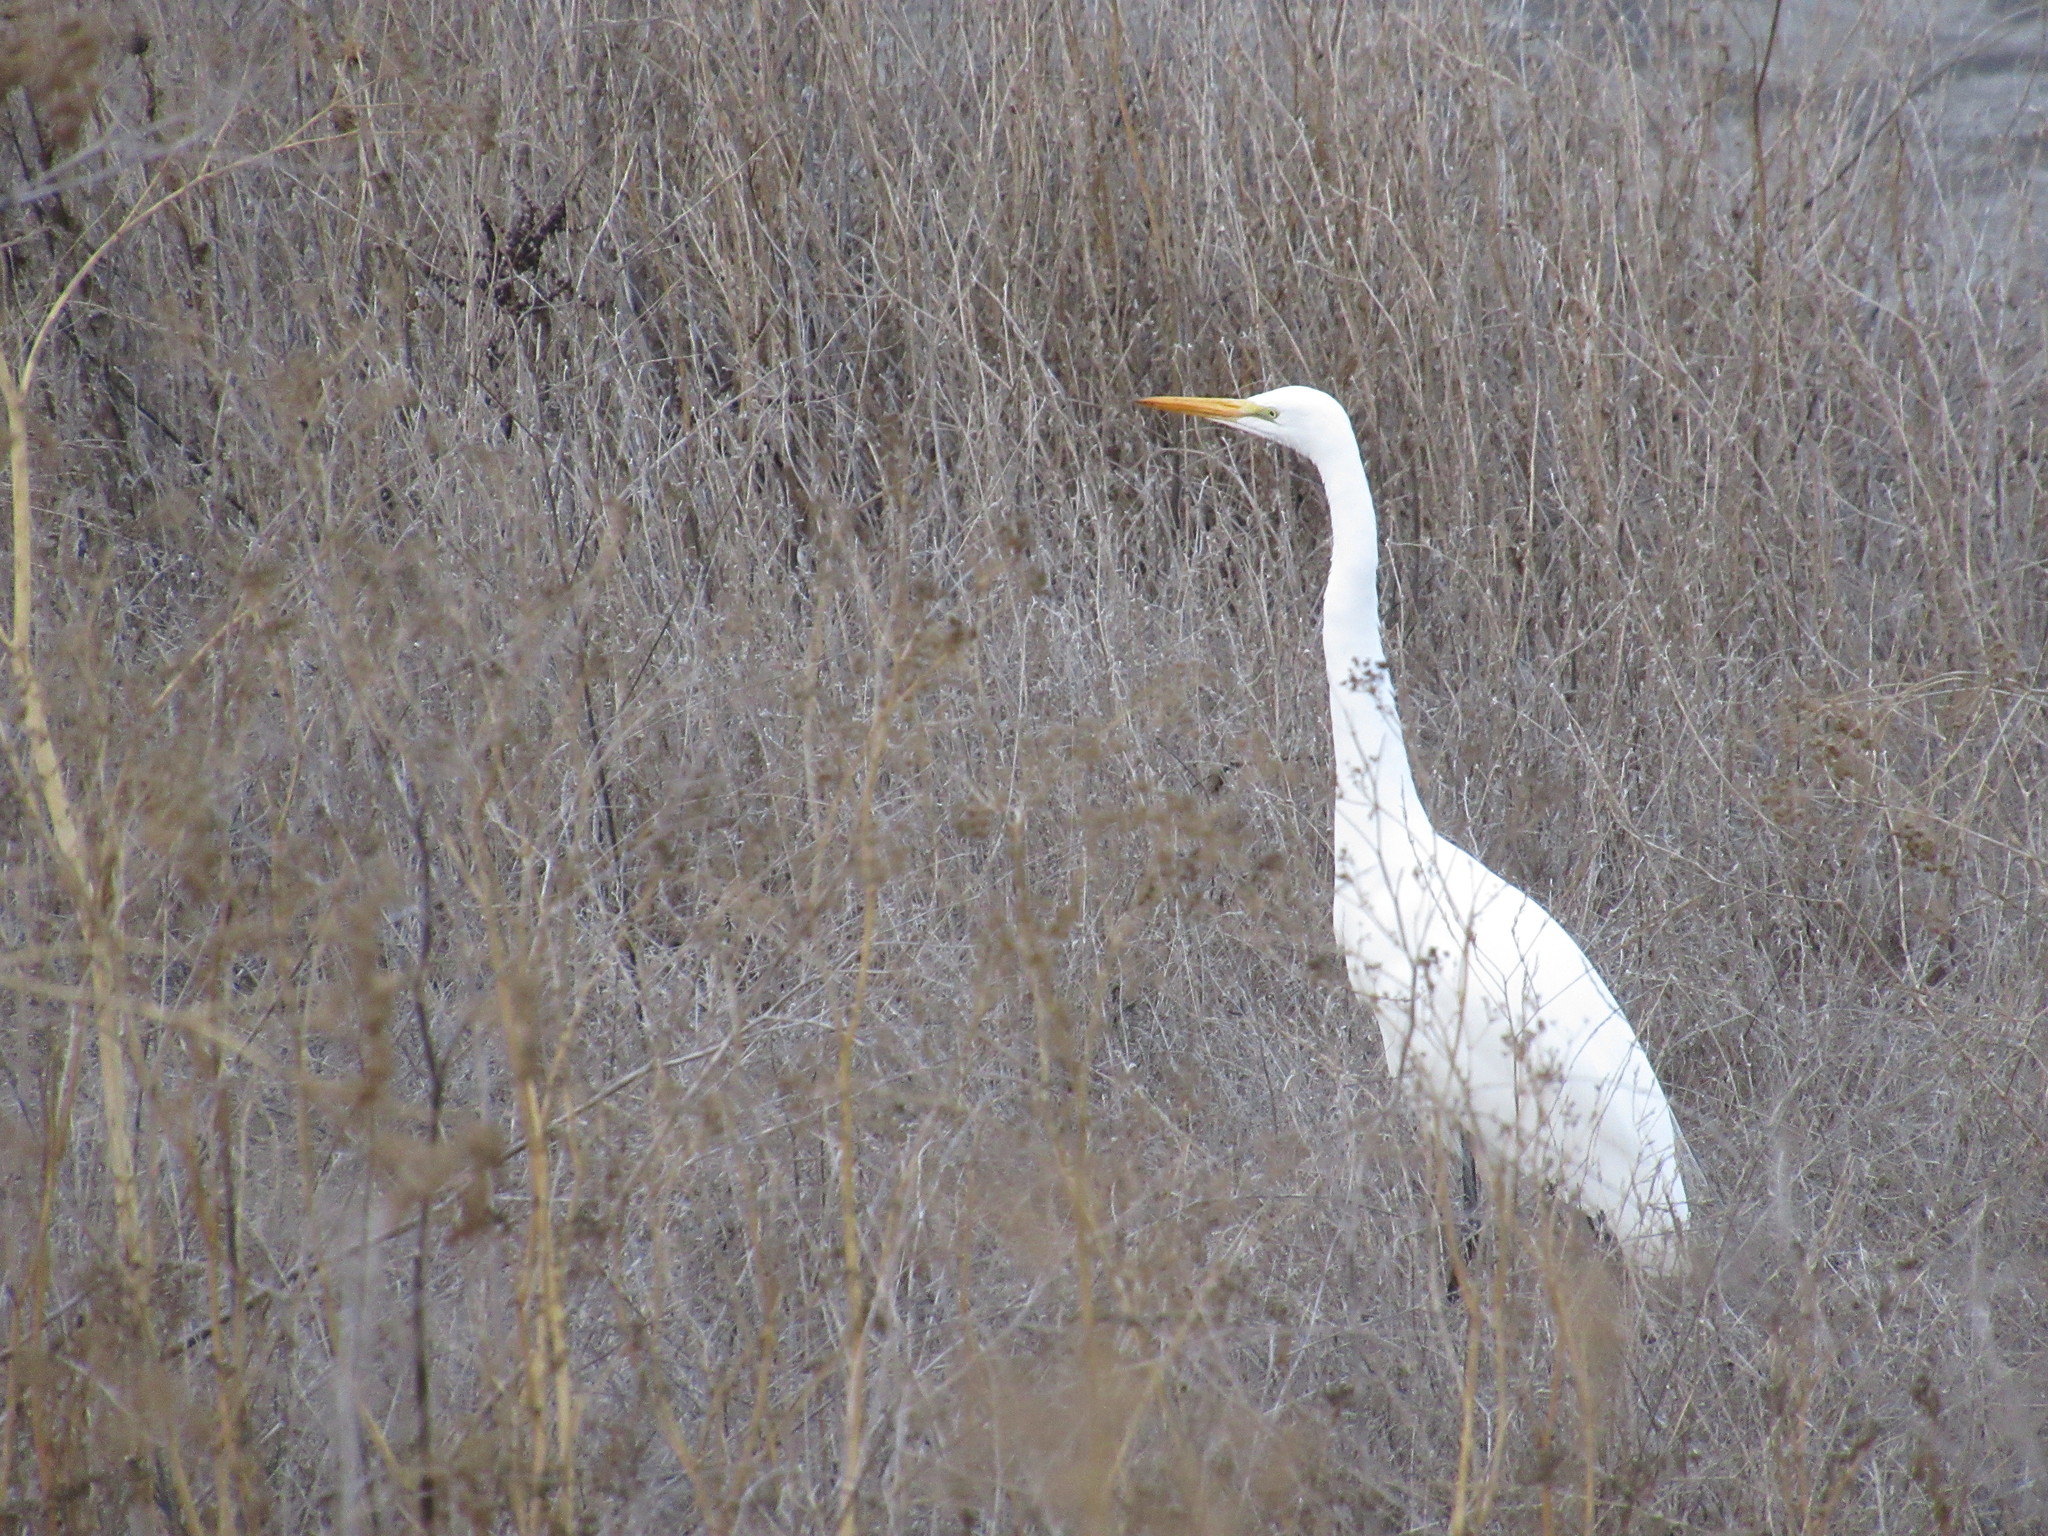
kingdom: Animalia
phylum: Chordata
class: Aves
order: Pelecaniformes
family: Ardeidae
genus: Ardea
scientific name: Ardea alba
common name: Great egret
